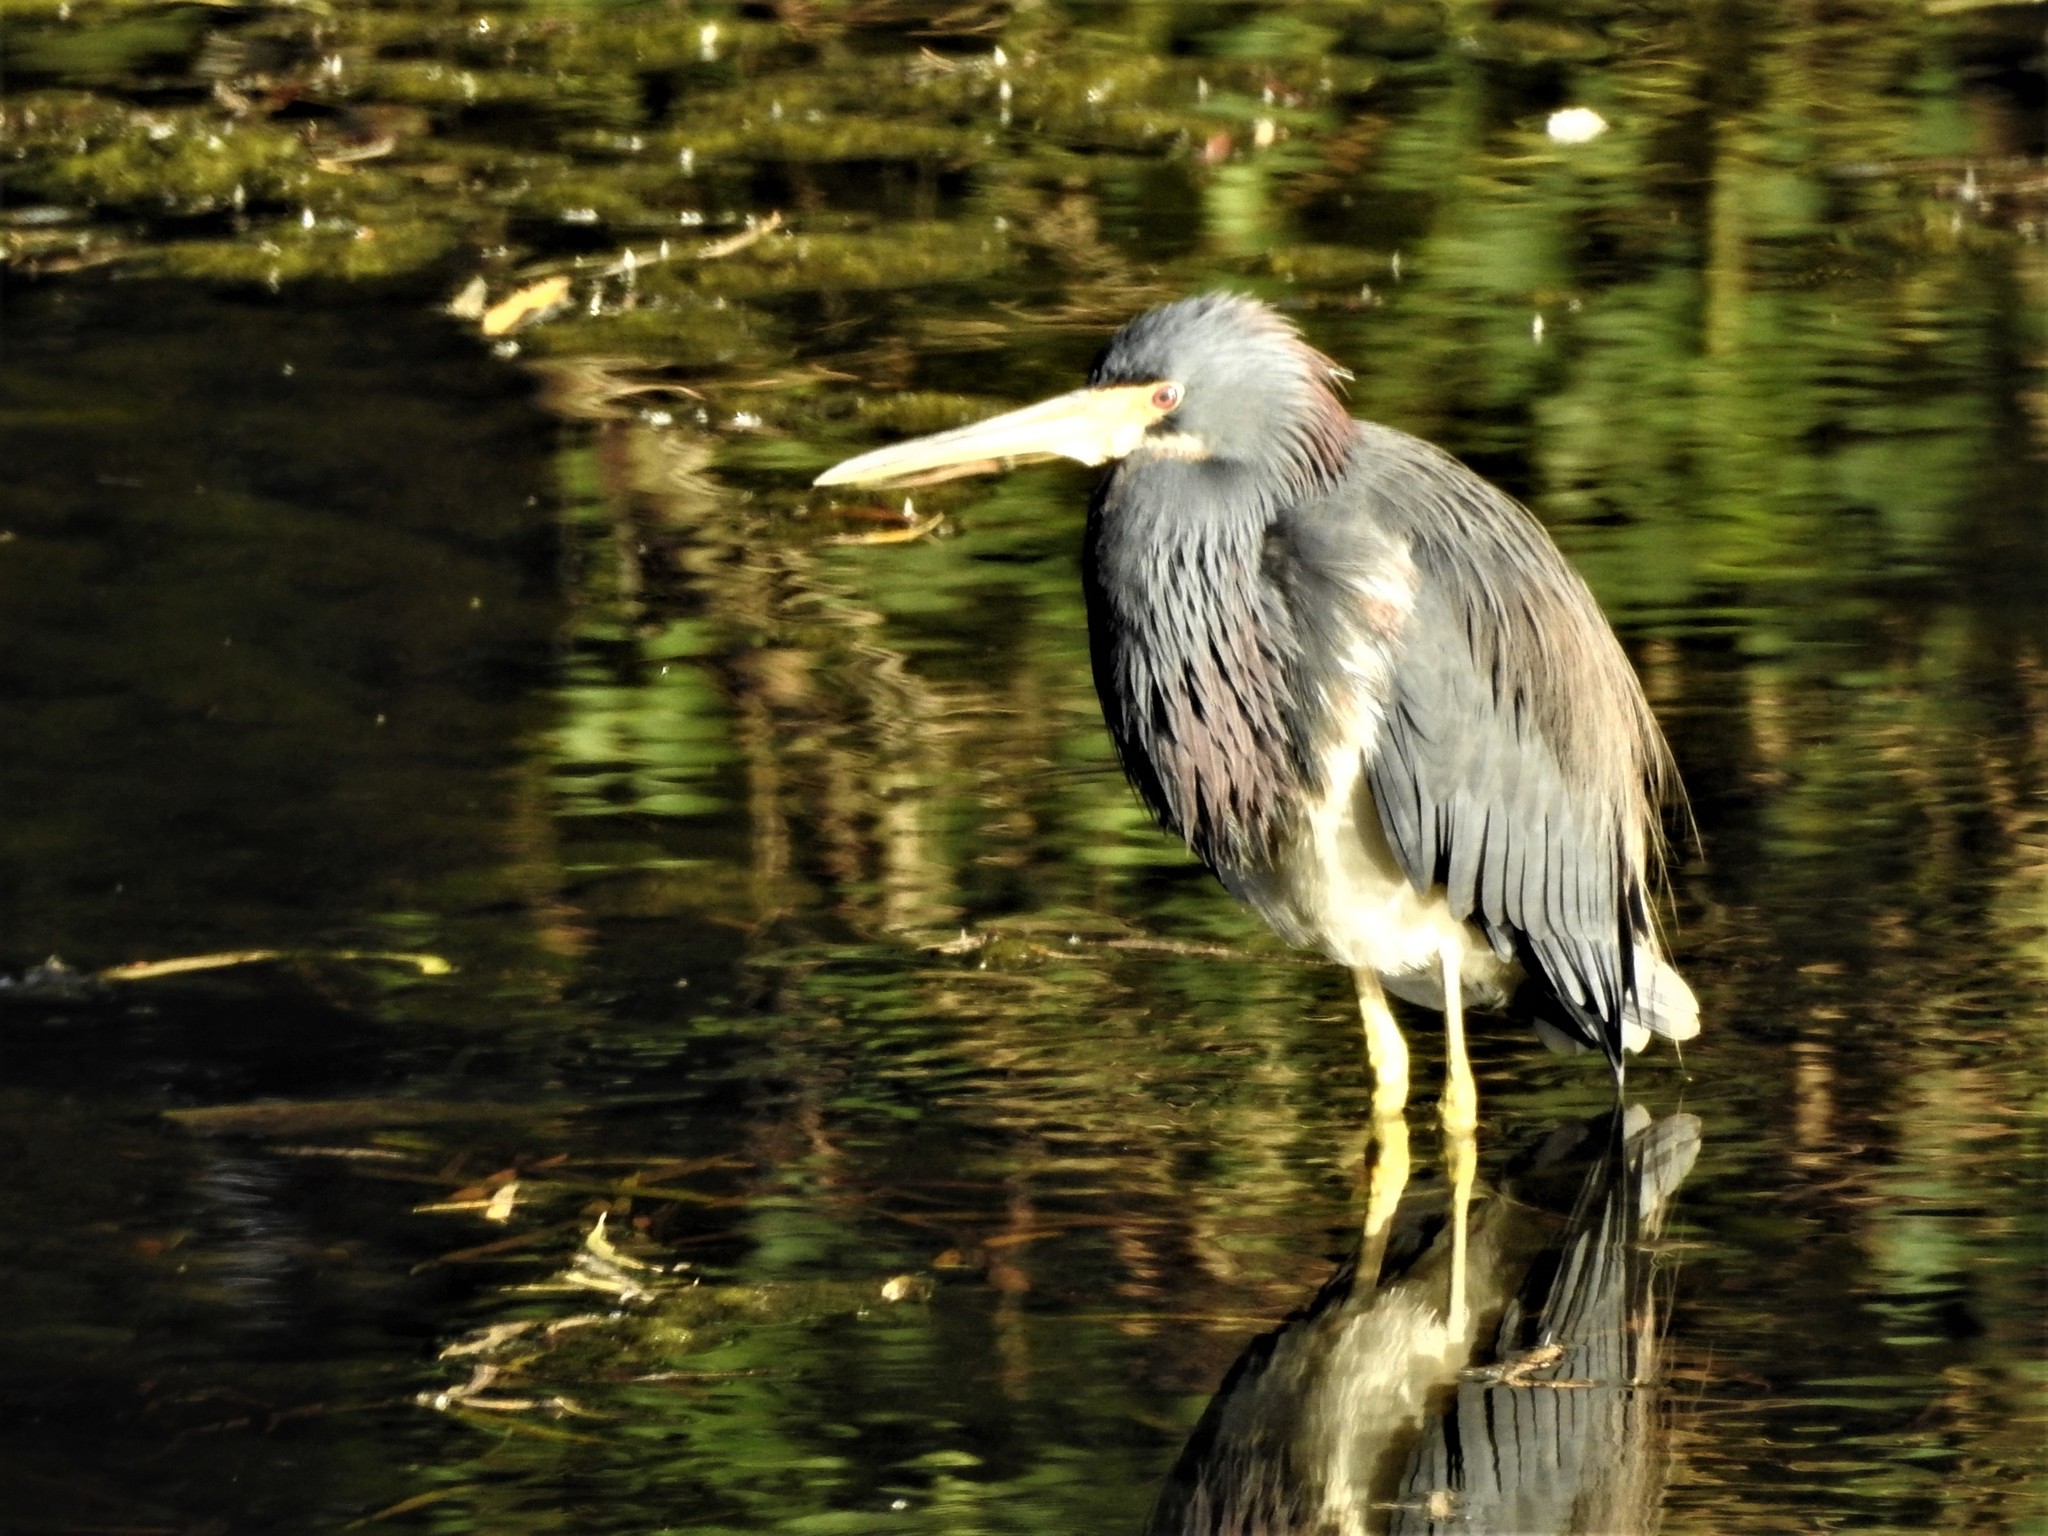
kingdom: Animalia
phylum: Chordata
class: Aves
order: Pelecaniformes
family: Ardeidae
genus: Egretta
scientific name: Egretta tricolor
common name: Tricolored heron
